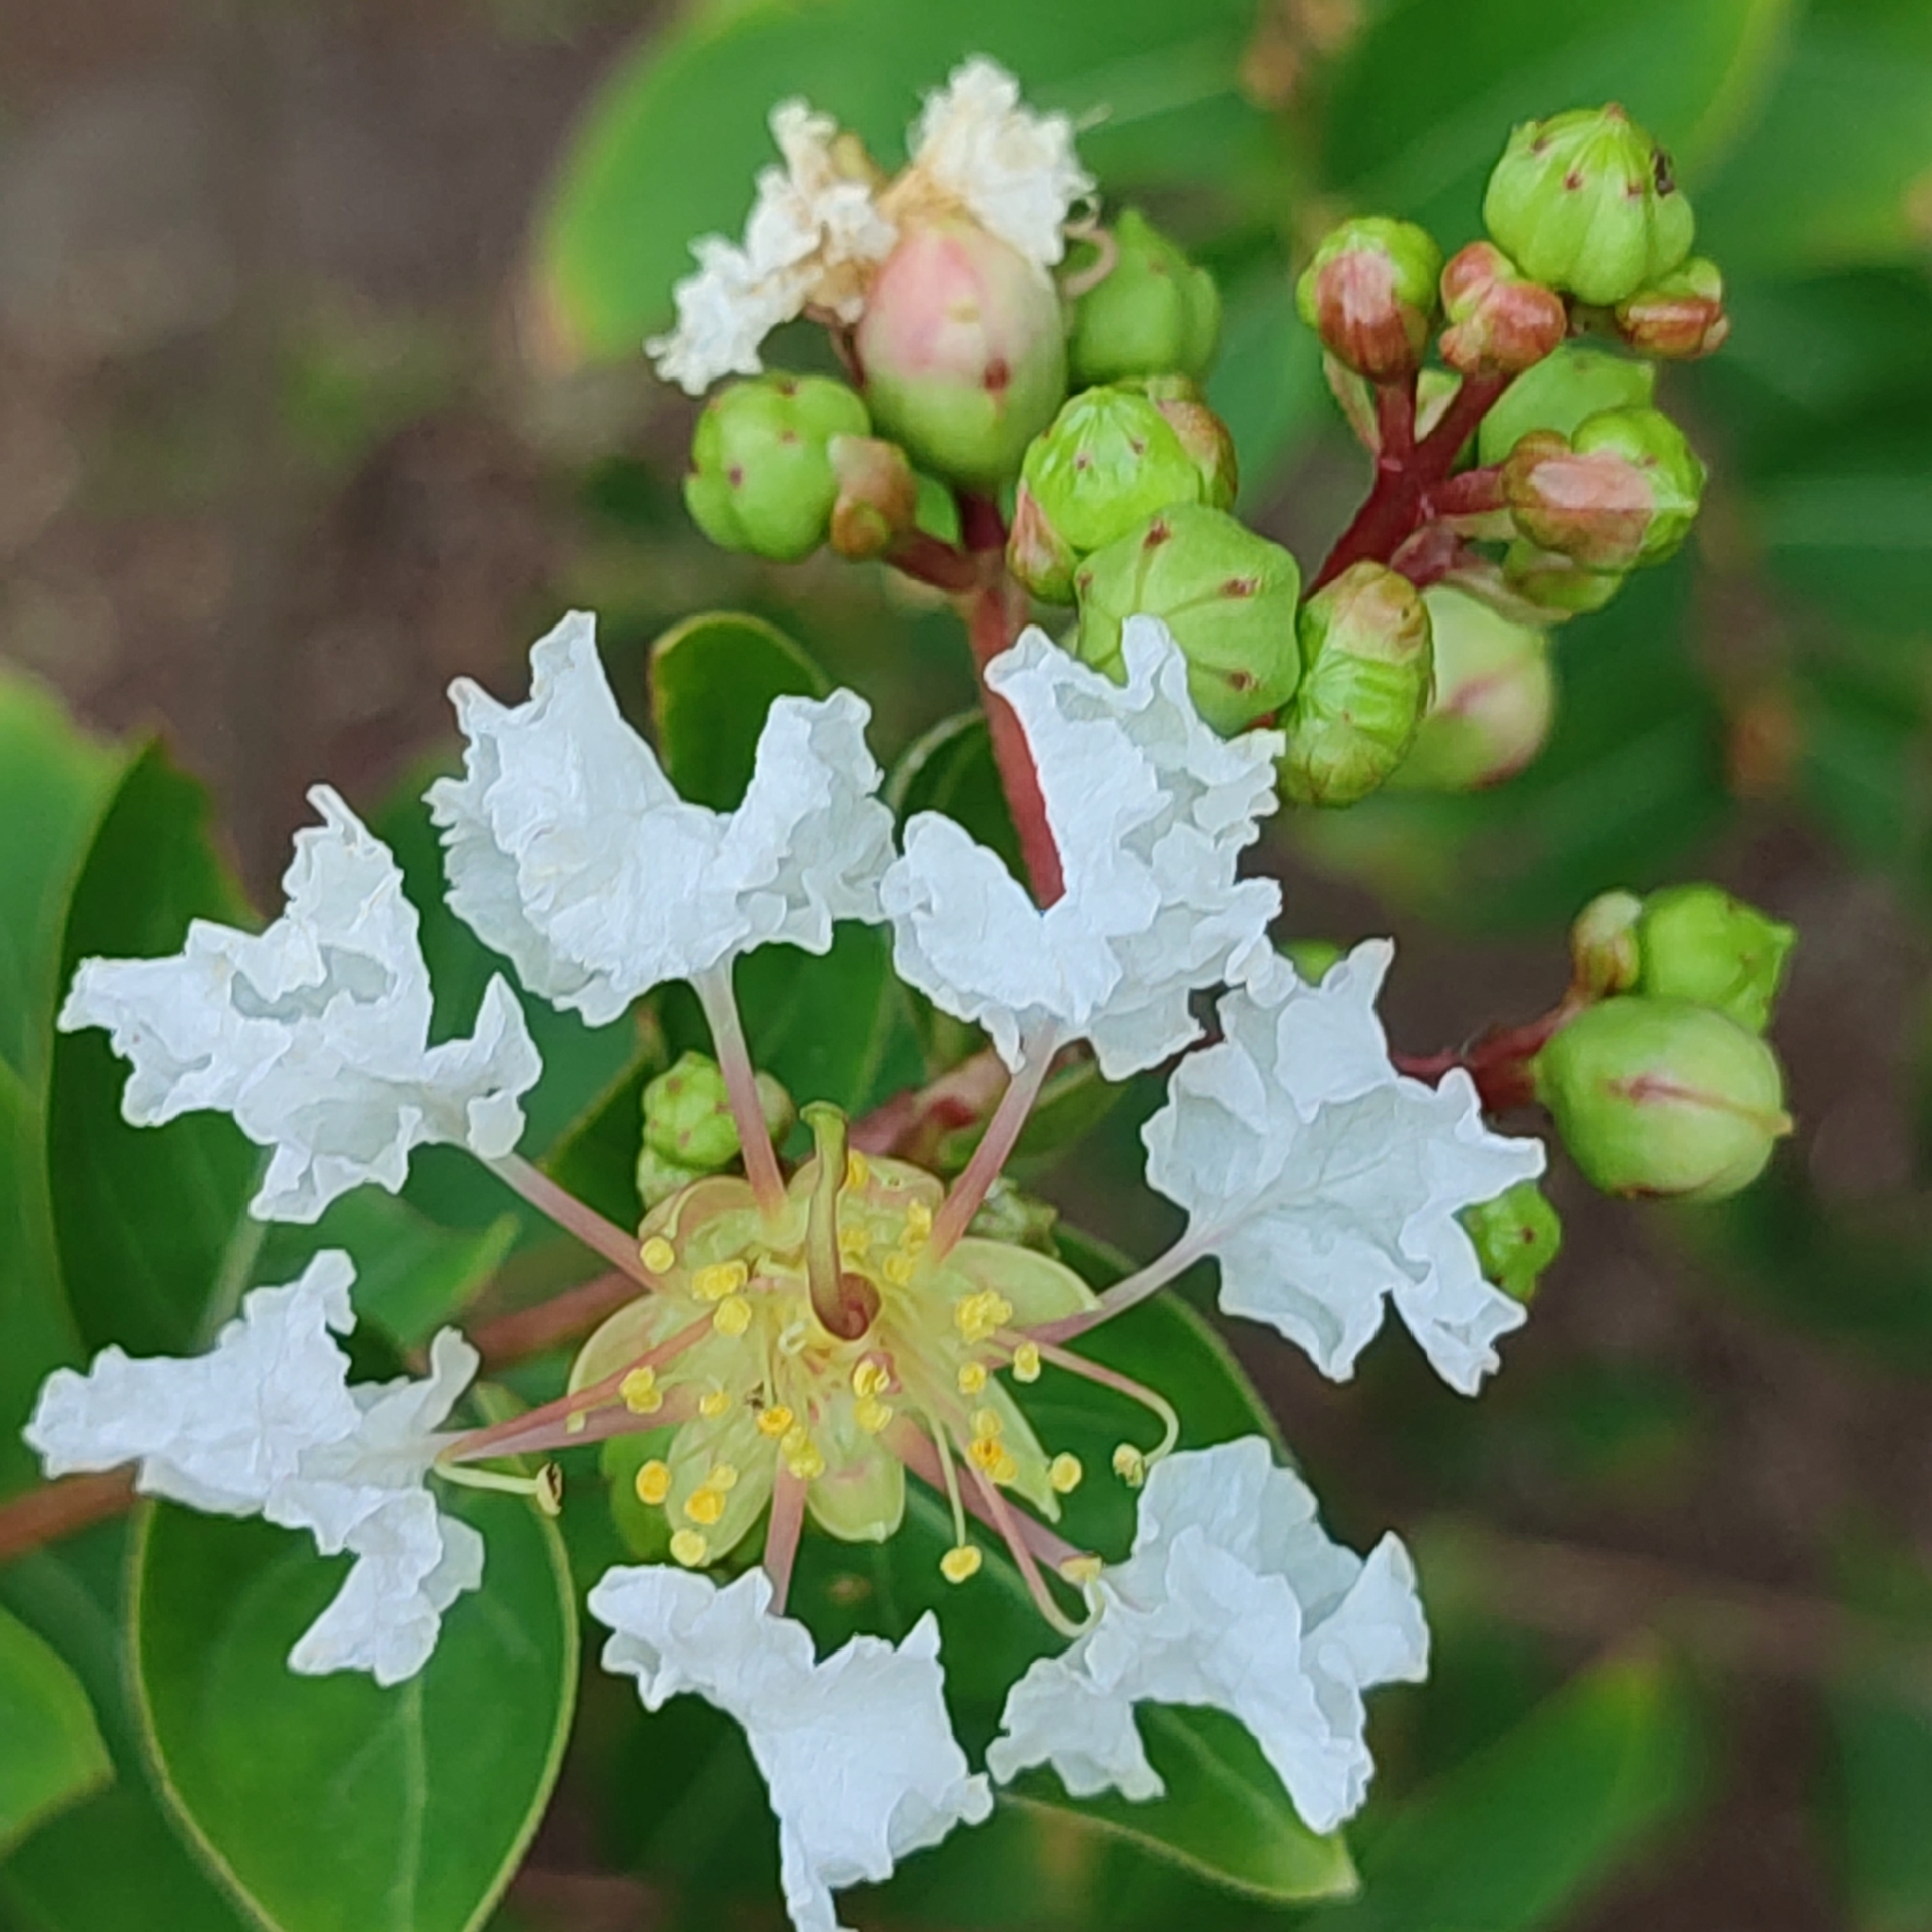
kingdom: Plantae
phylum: Tracheophyta
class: Magnoliopsida
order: Myrtales
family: Lythraceae
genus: Lagerstroemia
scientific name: Lagerstroemia indica
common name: Crape-myrtle
